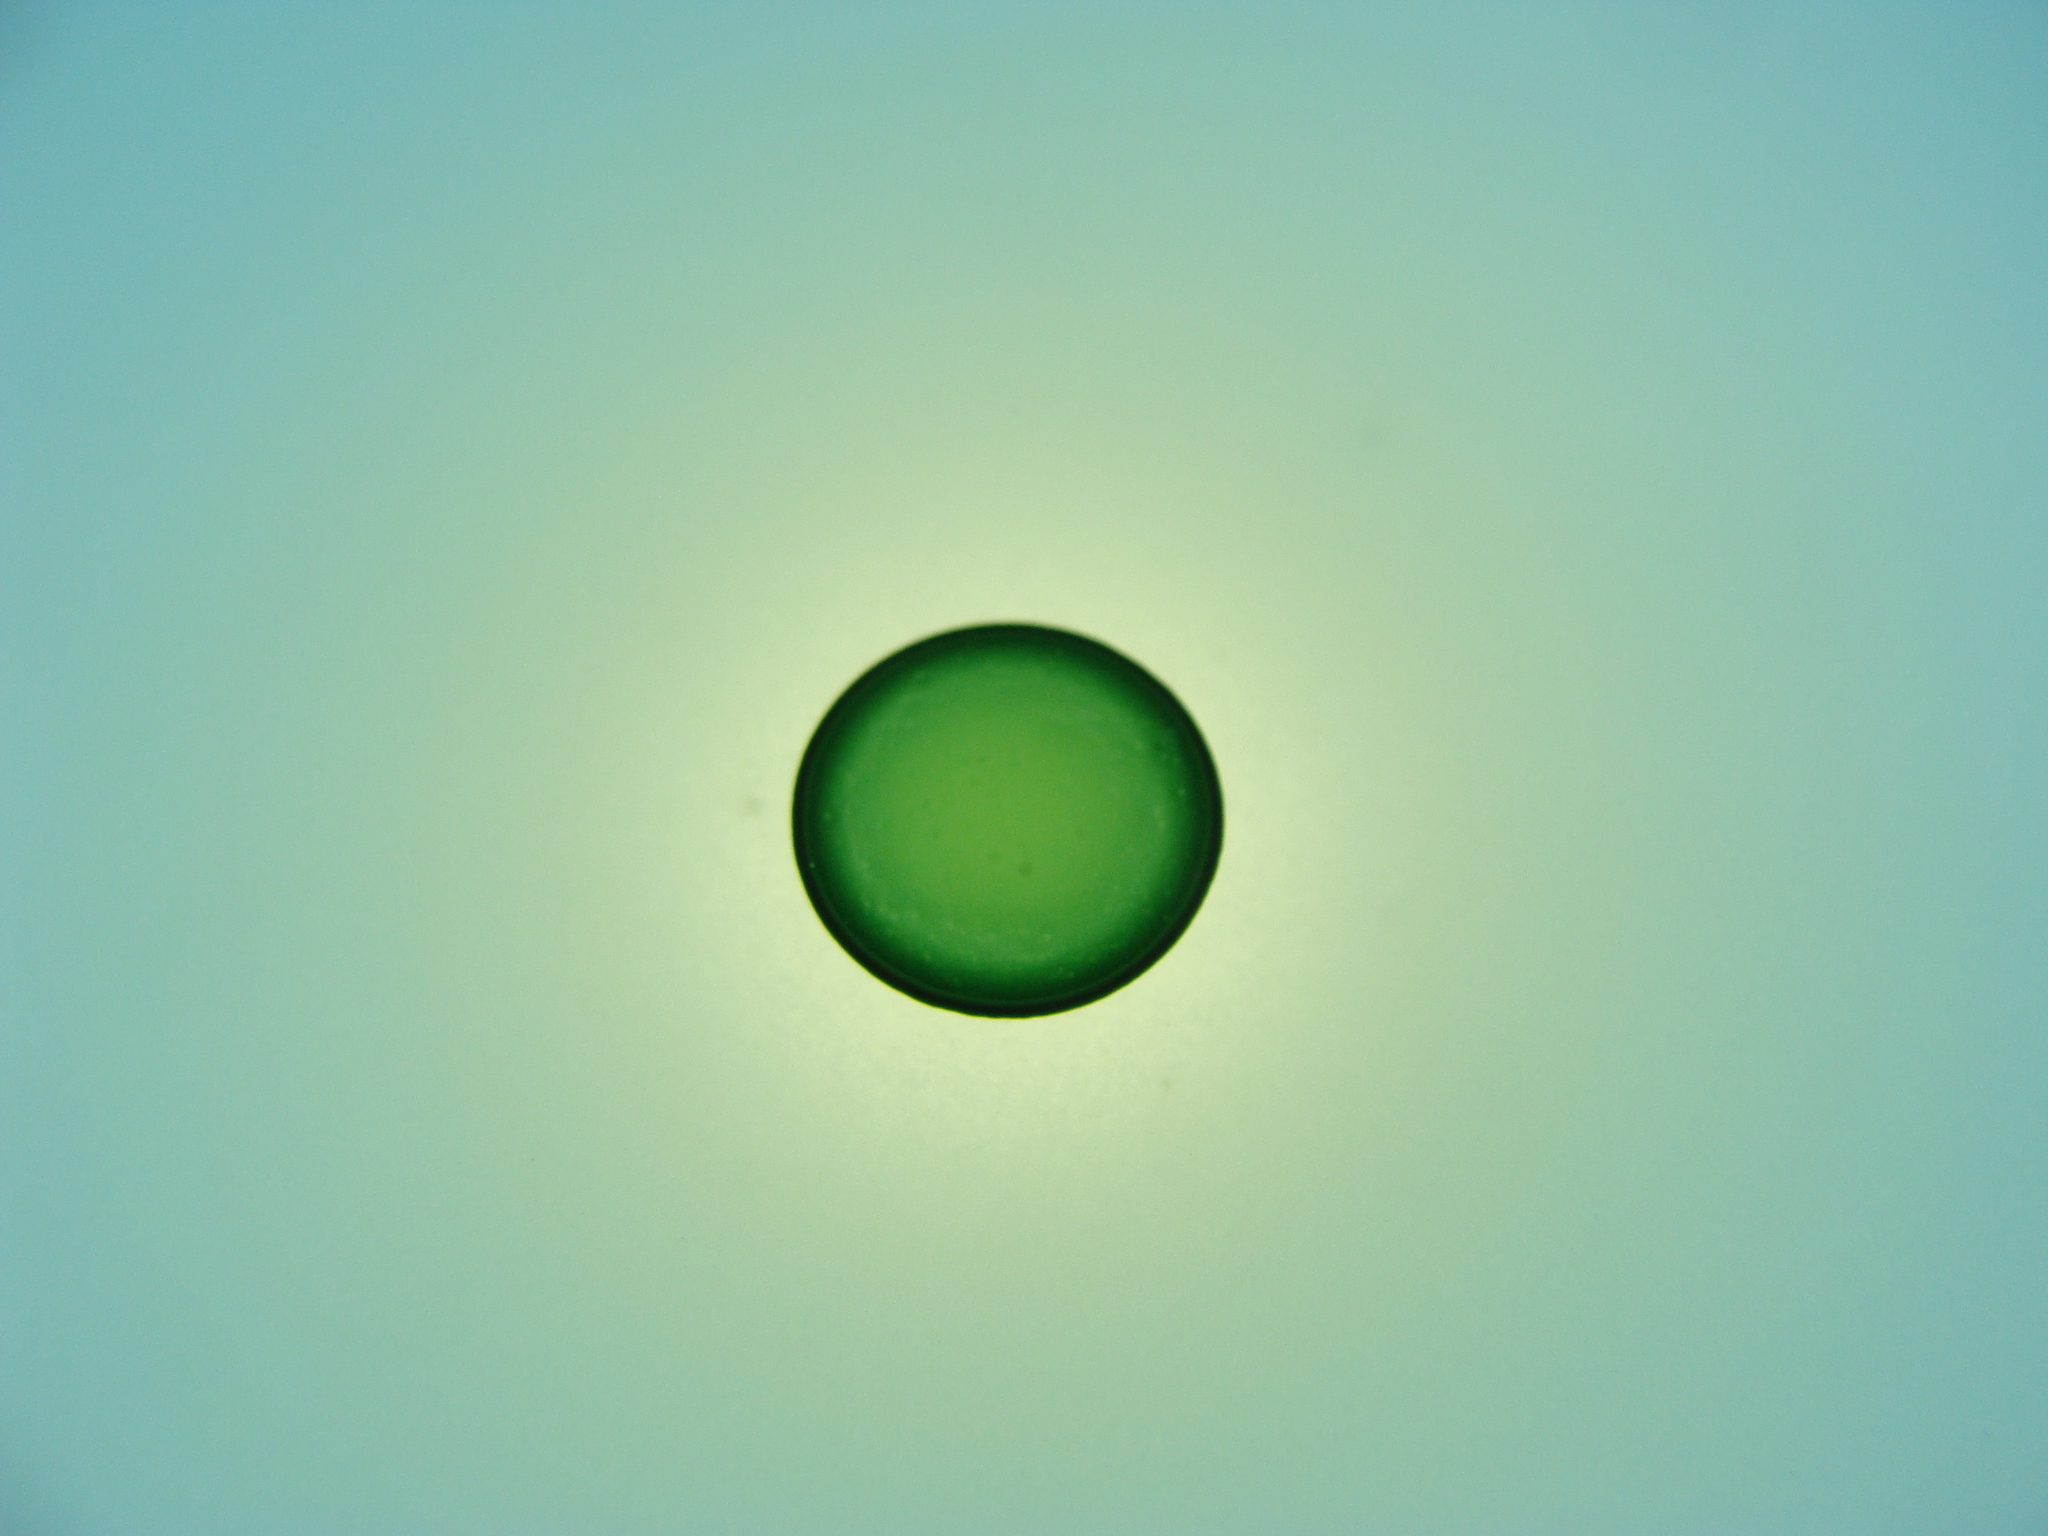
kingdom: Bacteria
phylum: Proteobacteria
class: Gammaproteobacteria
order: Burkholderiales
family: Burkholderiaceae
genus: Ralstonia
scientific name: Ralstonia
